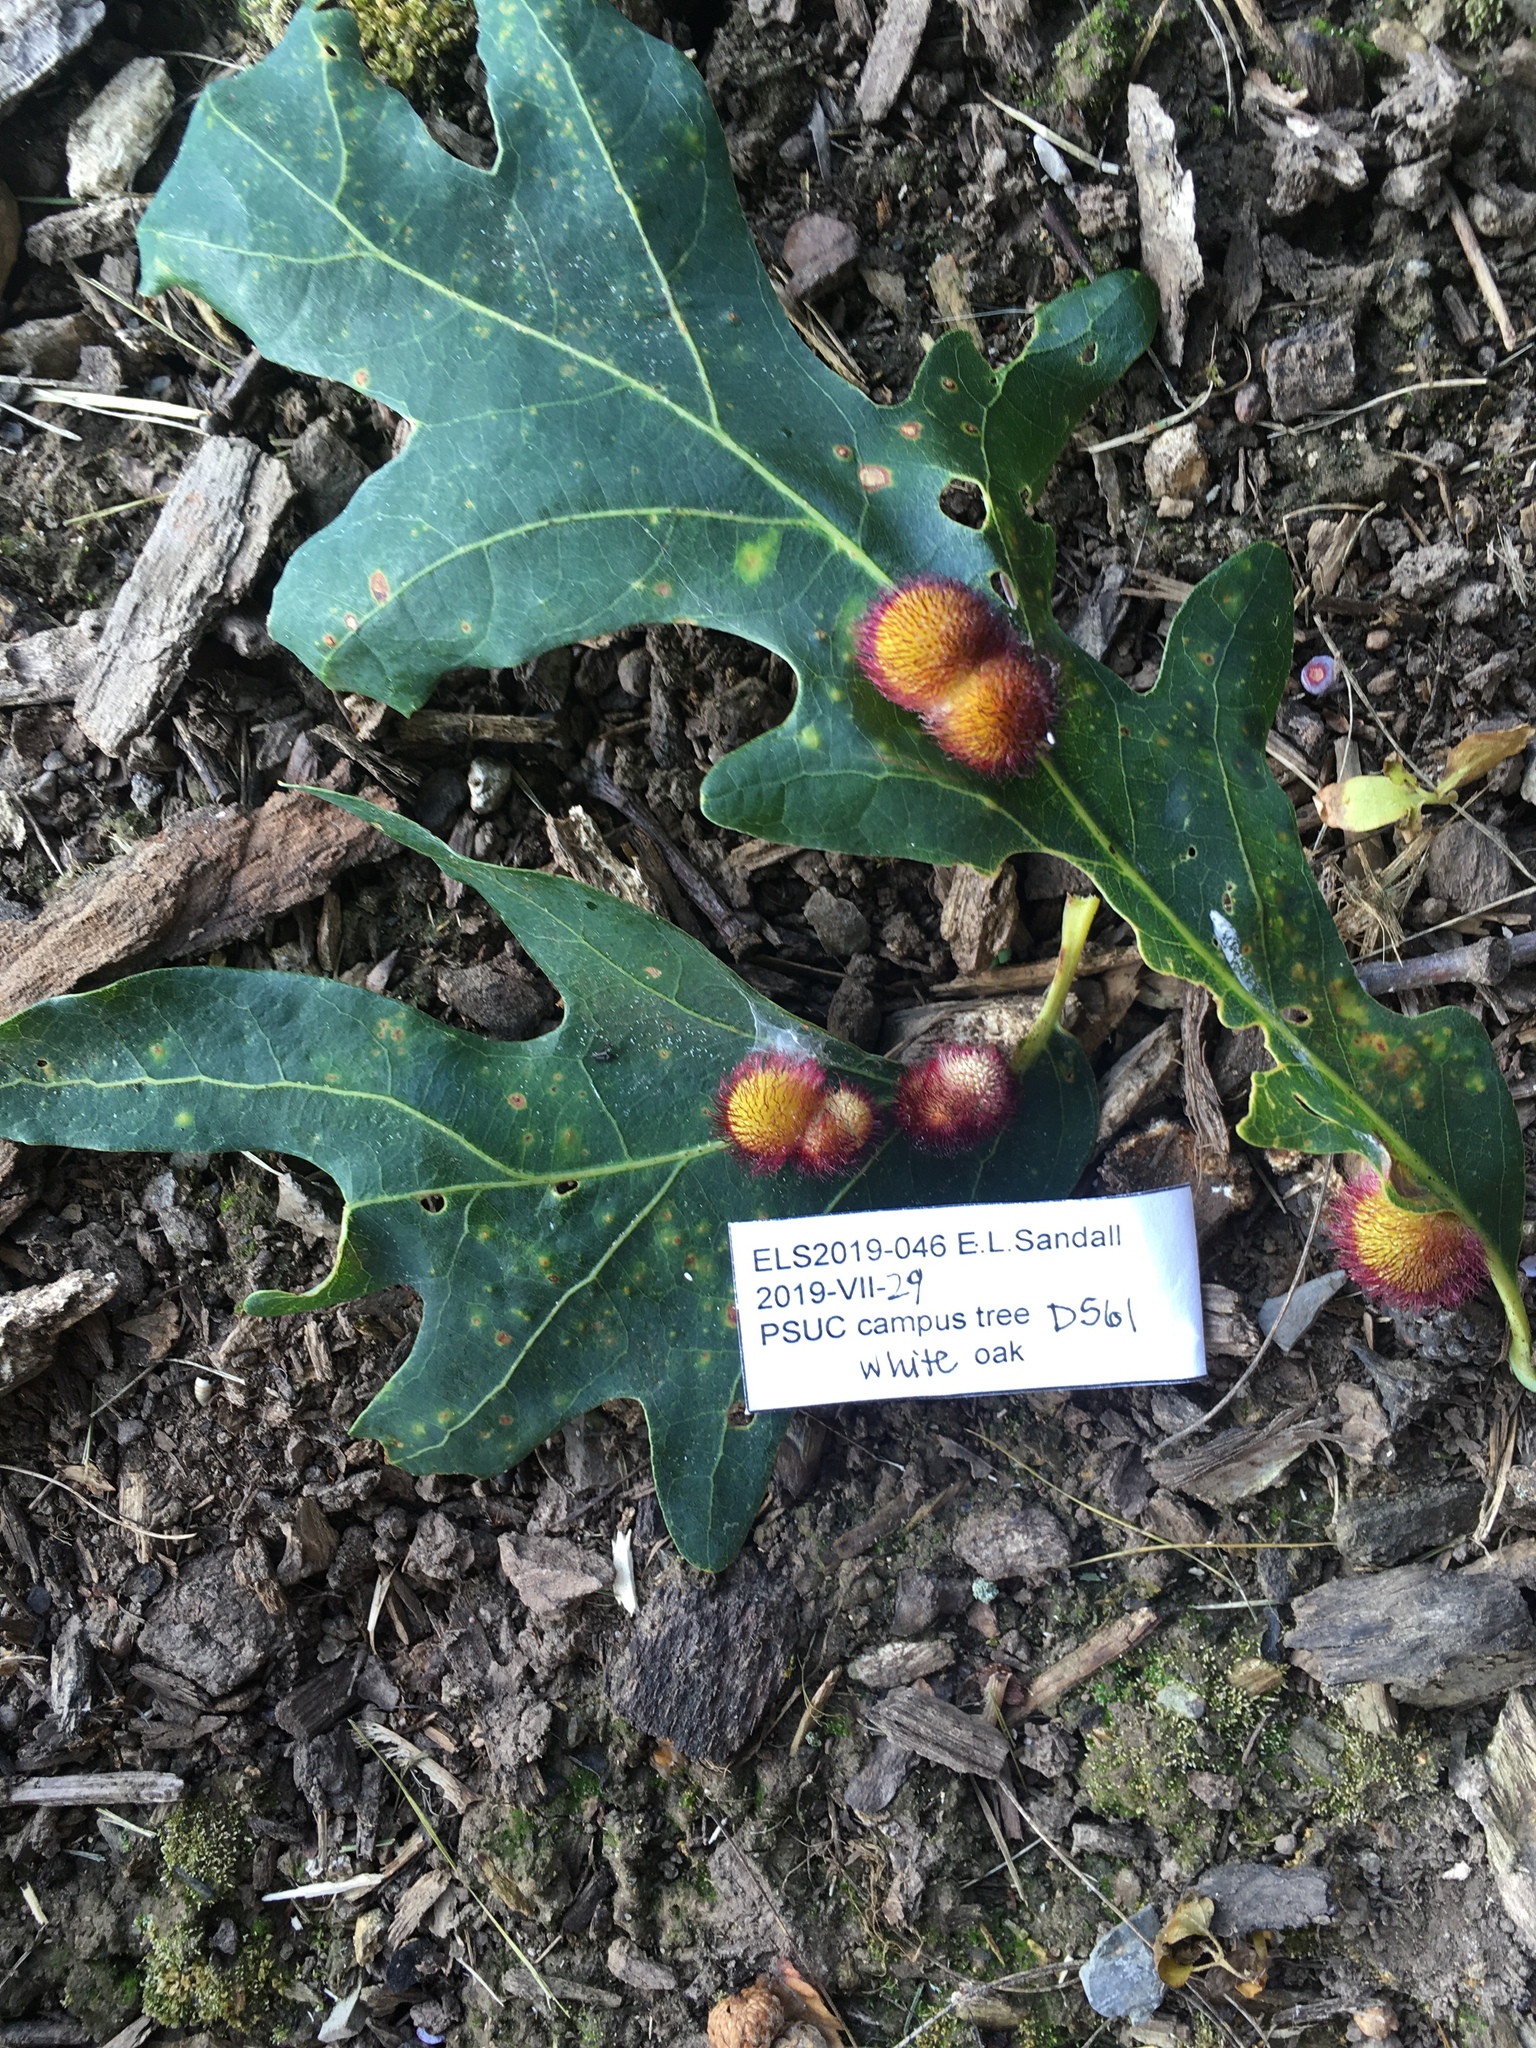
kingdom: Animalia
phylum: Arthropoda
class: Insecta
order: Hymenoptera
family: Cynipidae
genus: Acraspis
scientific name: Acraspis erinacei
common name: Hedgehog gall wasp
